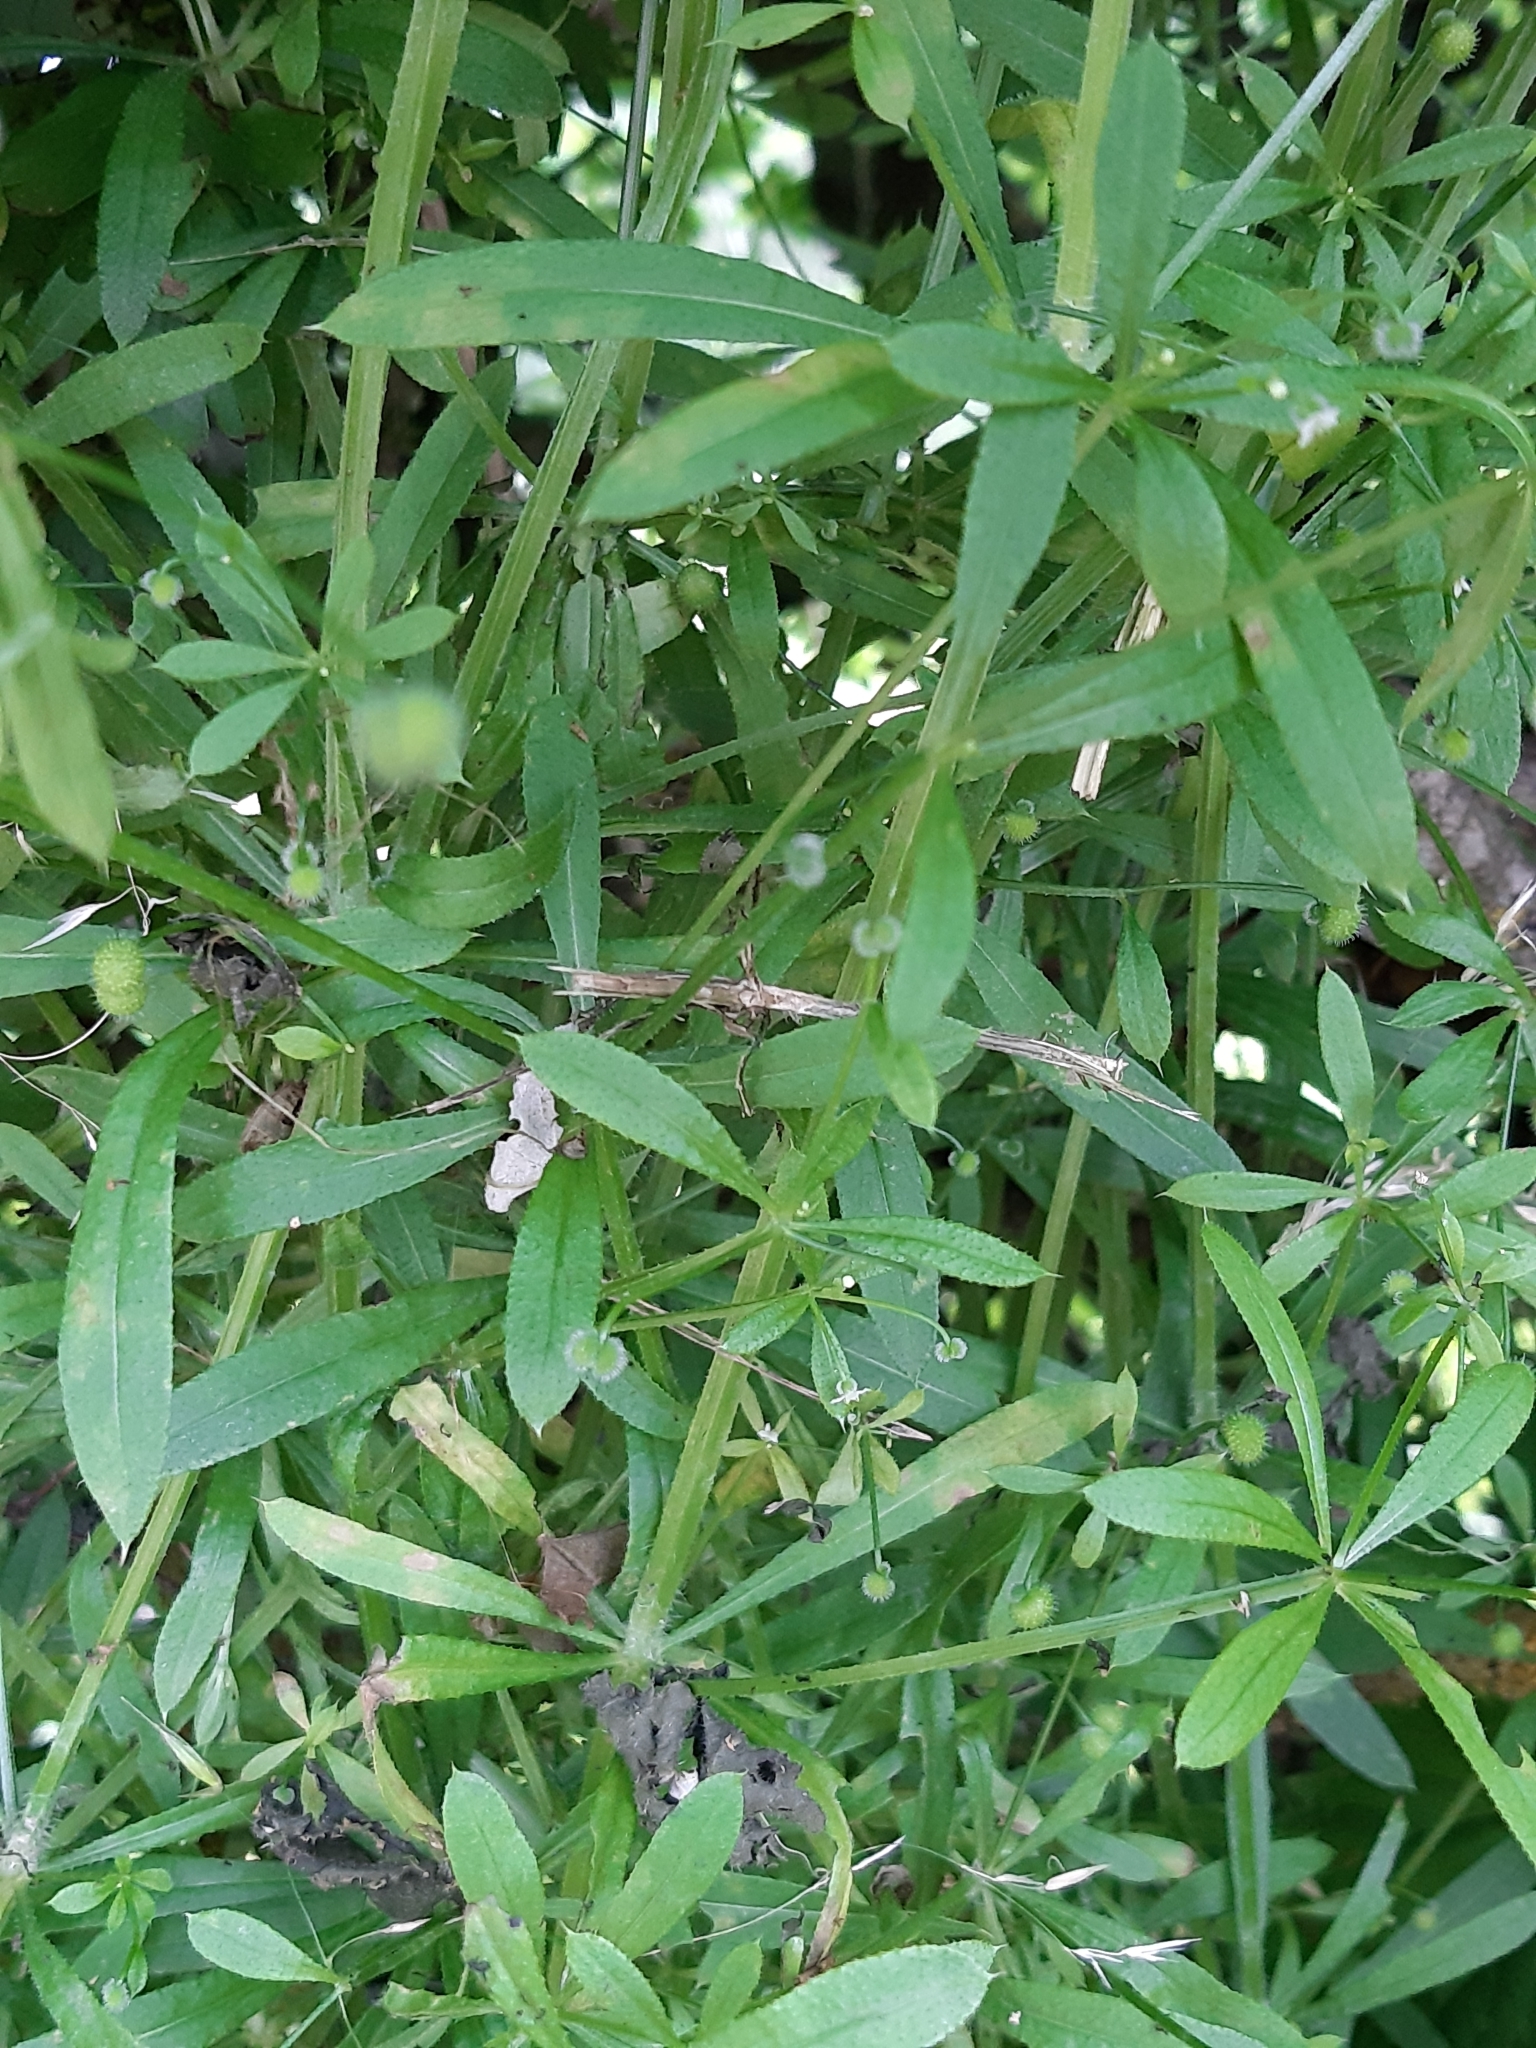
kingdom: Plantae
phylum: Tracheophyta
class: Magnoliopsida
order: Gentianales
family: Rubiaceae
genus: Galium
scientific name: Galium aparine
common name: Cleavers
